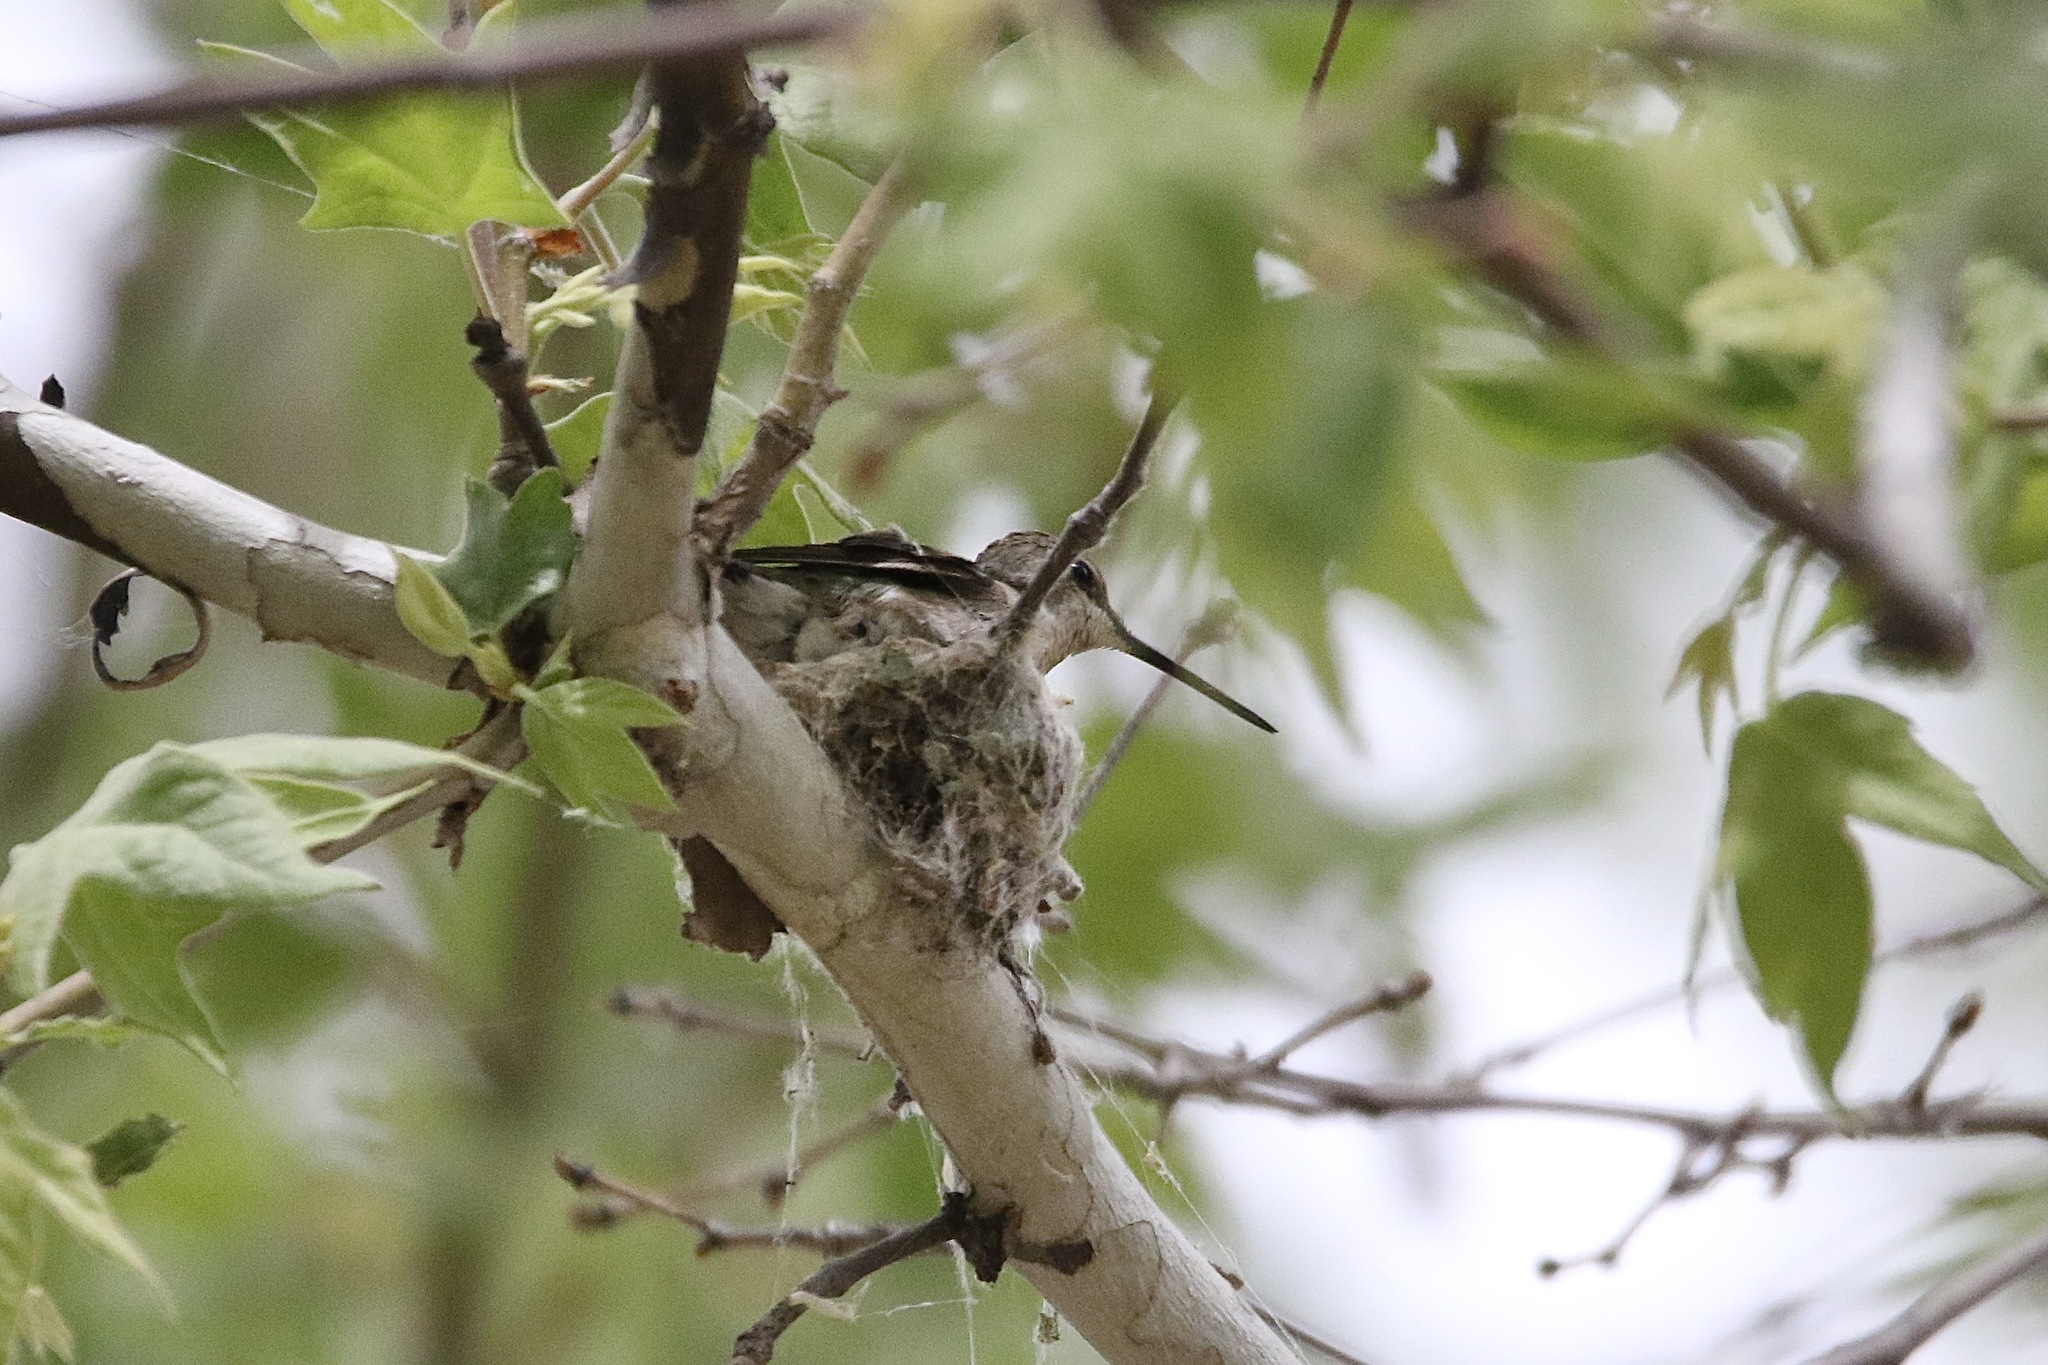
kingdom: Animalia
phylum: Chordata
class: Aves
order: Apodiformes
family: Trochilidae
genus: Archilochus
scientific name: Archilochus alexandri
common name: Black-chinned hummingbird
